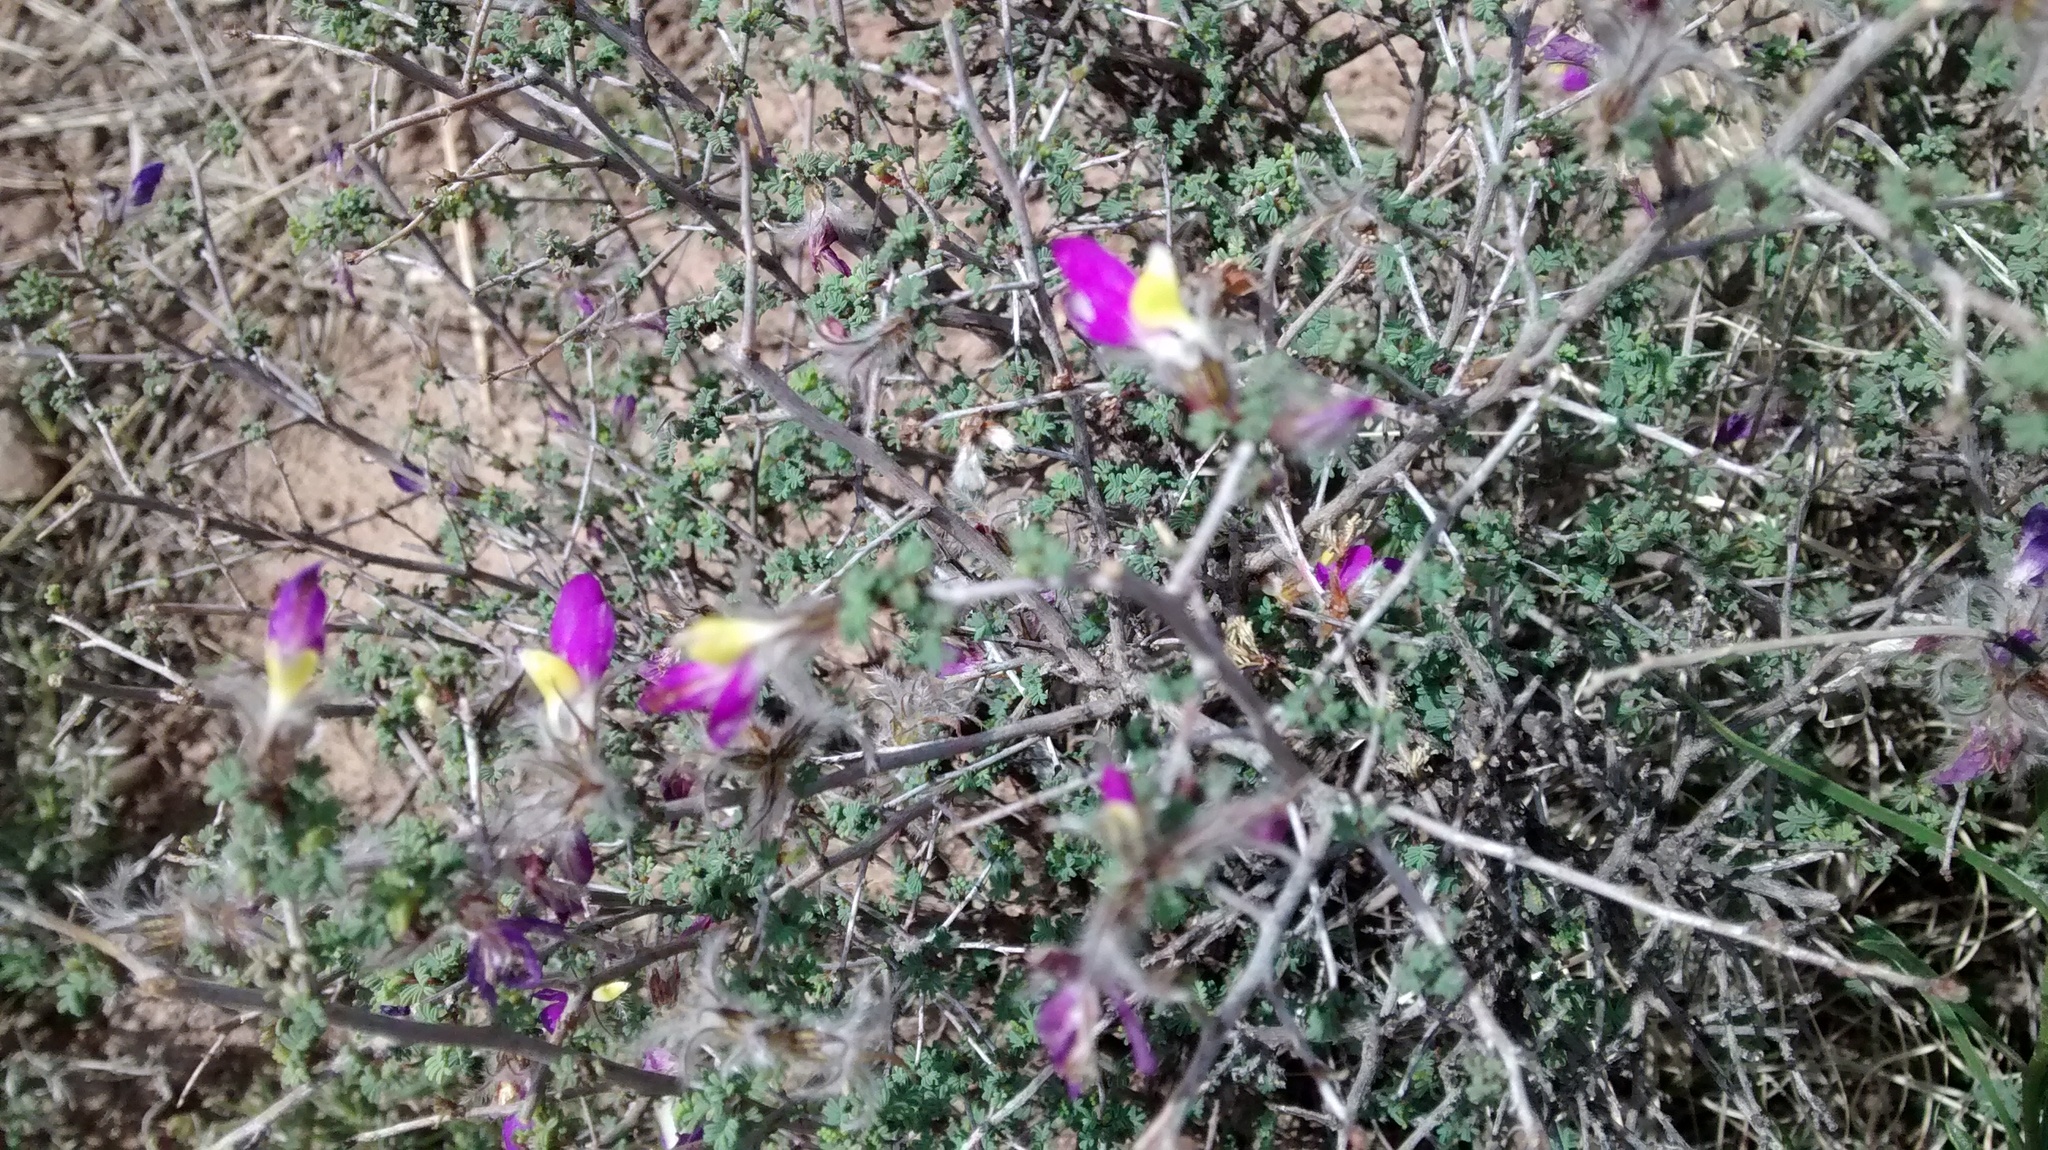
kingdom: Plantae
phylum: Tracheophyta
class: Magnoliopsida
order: Fabales
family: Fabaceae
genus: Dalea
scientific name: Dalea formosa
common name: Feather-plume dalea
